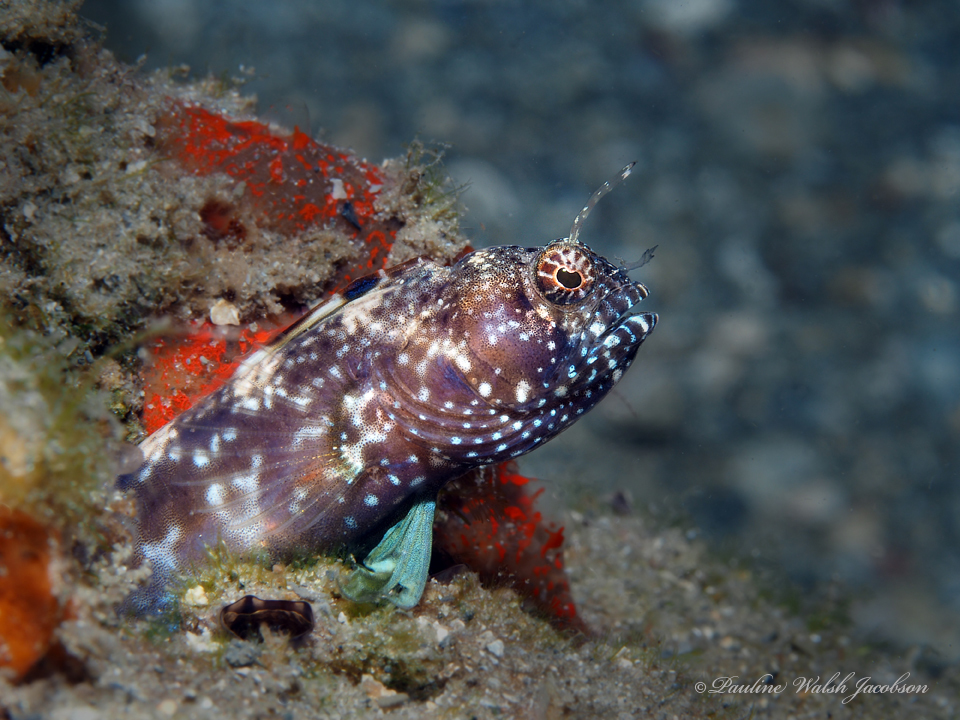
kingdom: Animalia
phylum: Chordata
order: Perciformes
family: Chaenopsidae
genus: Emblemaria
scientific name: Emblemaria pandionis
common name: Sailfin blenny
